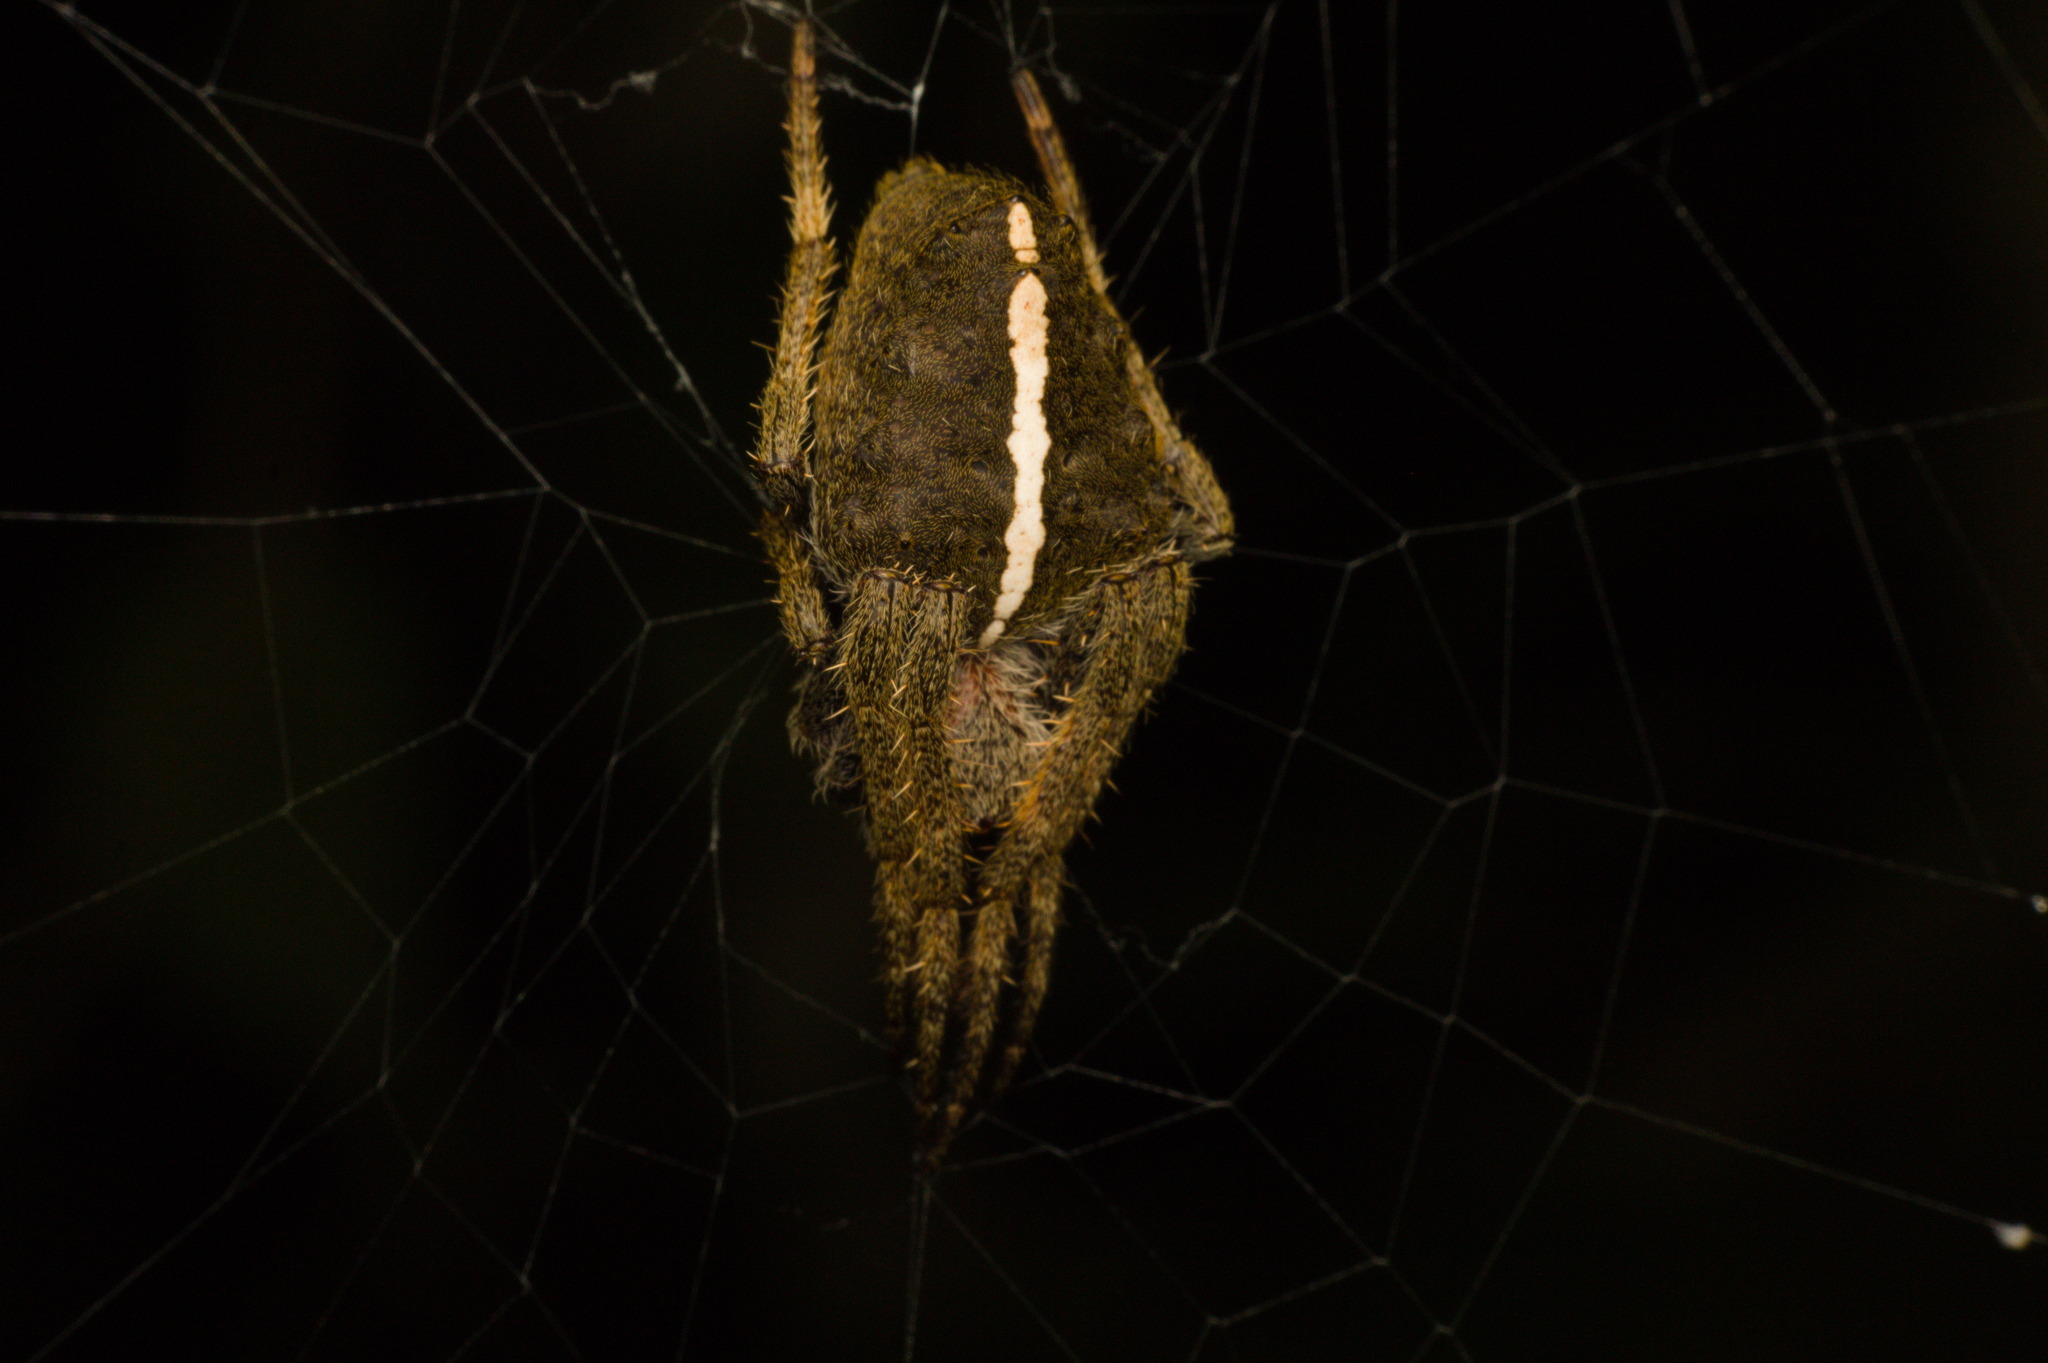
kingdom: Animalia
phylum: Arthropoda
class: Arachnida
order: Araneae
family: Araneidae
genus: Parawixia
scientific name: Parawixia audax
